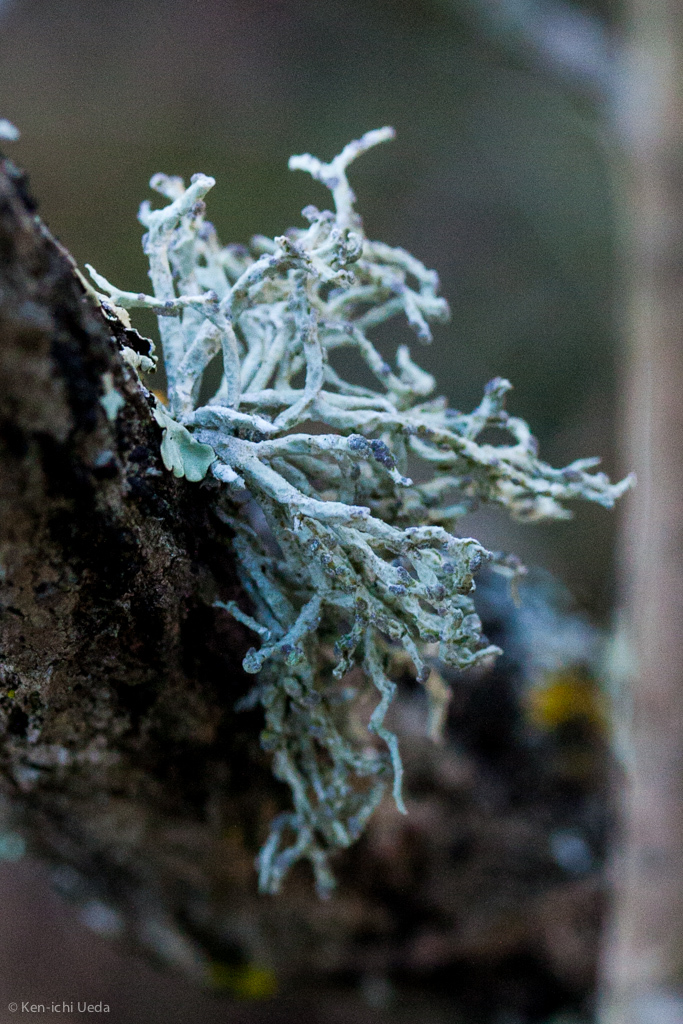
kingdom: Fungi
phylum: Ascomycota
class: Lecanoromycetes
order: Lecanorales
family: Ramalinaceae
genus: Niebla
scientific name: Niebla cephalota
